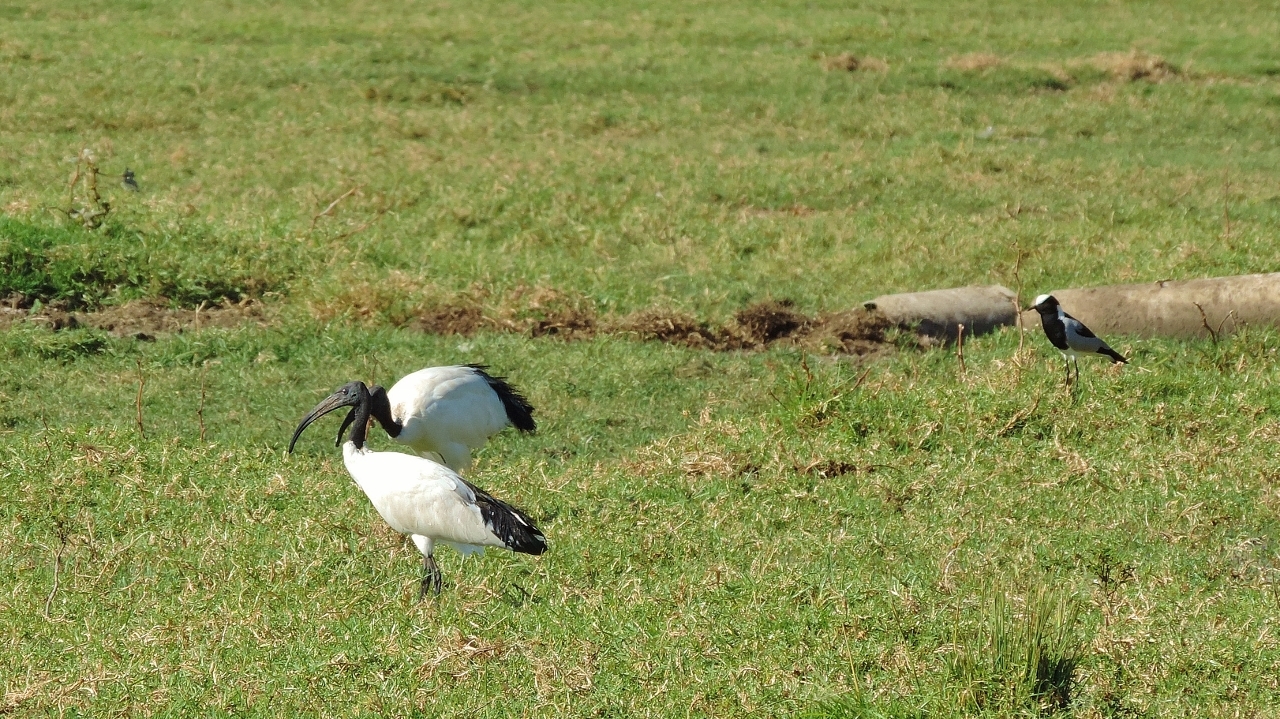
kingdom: Animalia
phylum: Chordata
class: Aves
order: Pelecaniformes
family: Threskiornithidae
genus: Threskiornis
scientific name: Threskiornis aethiopicus
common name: Sacred ibis
